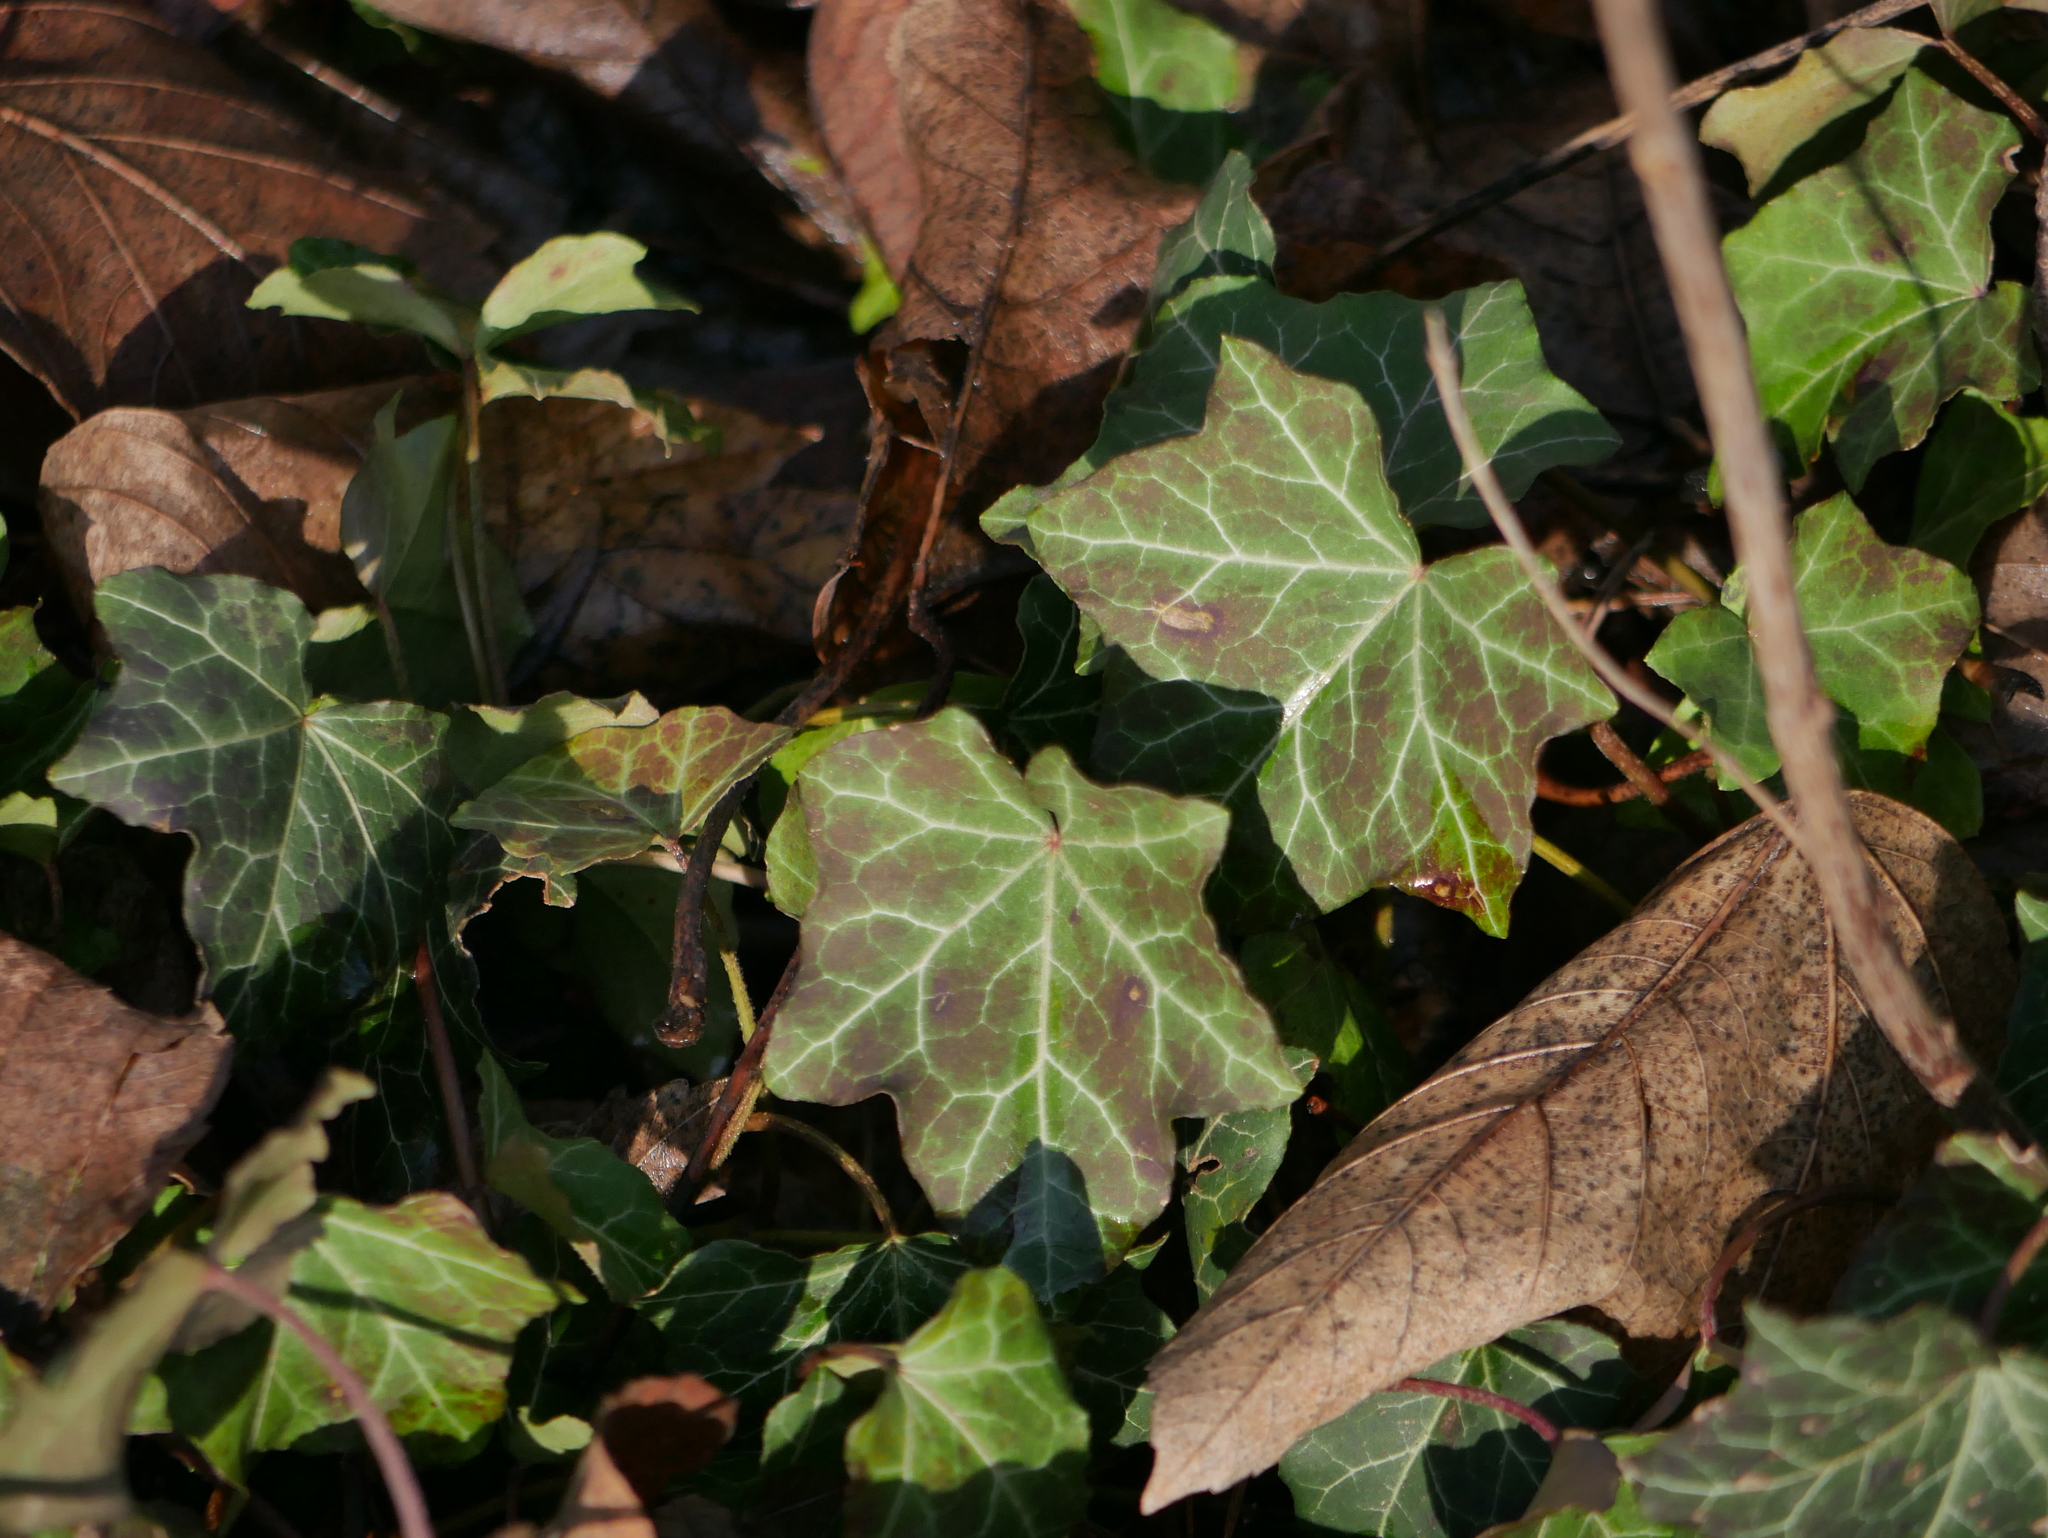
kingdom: Plantae
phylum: Tracheophyta
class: Magnoliopsida
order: Apiales
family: Araliaceae
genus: Hedera
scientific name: Hedera helix
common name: Ivy
